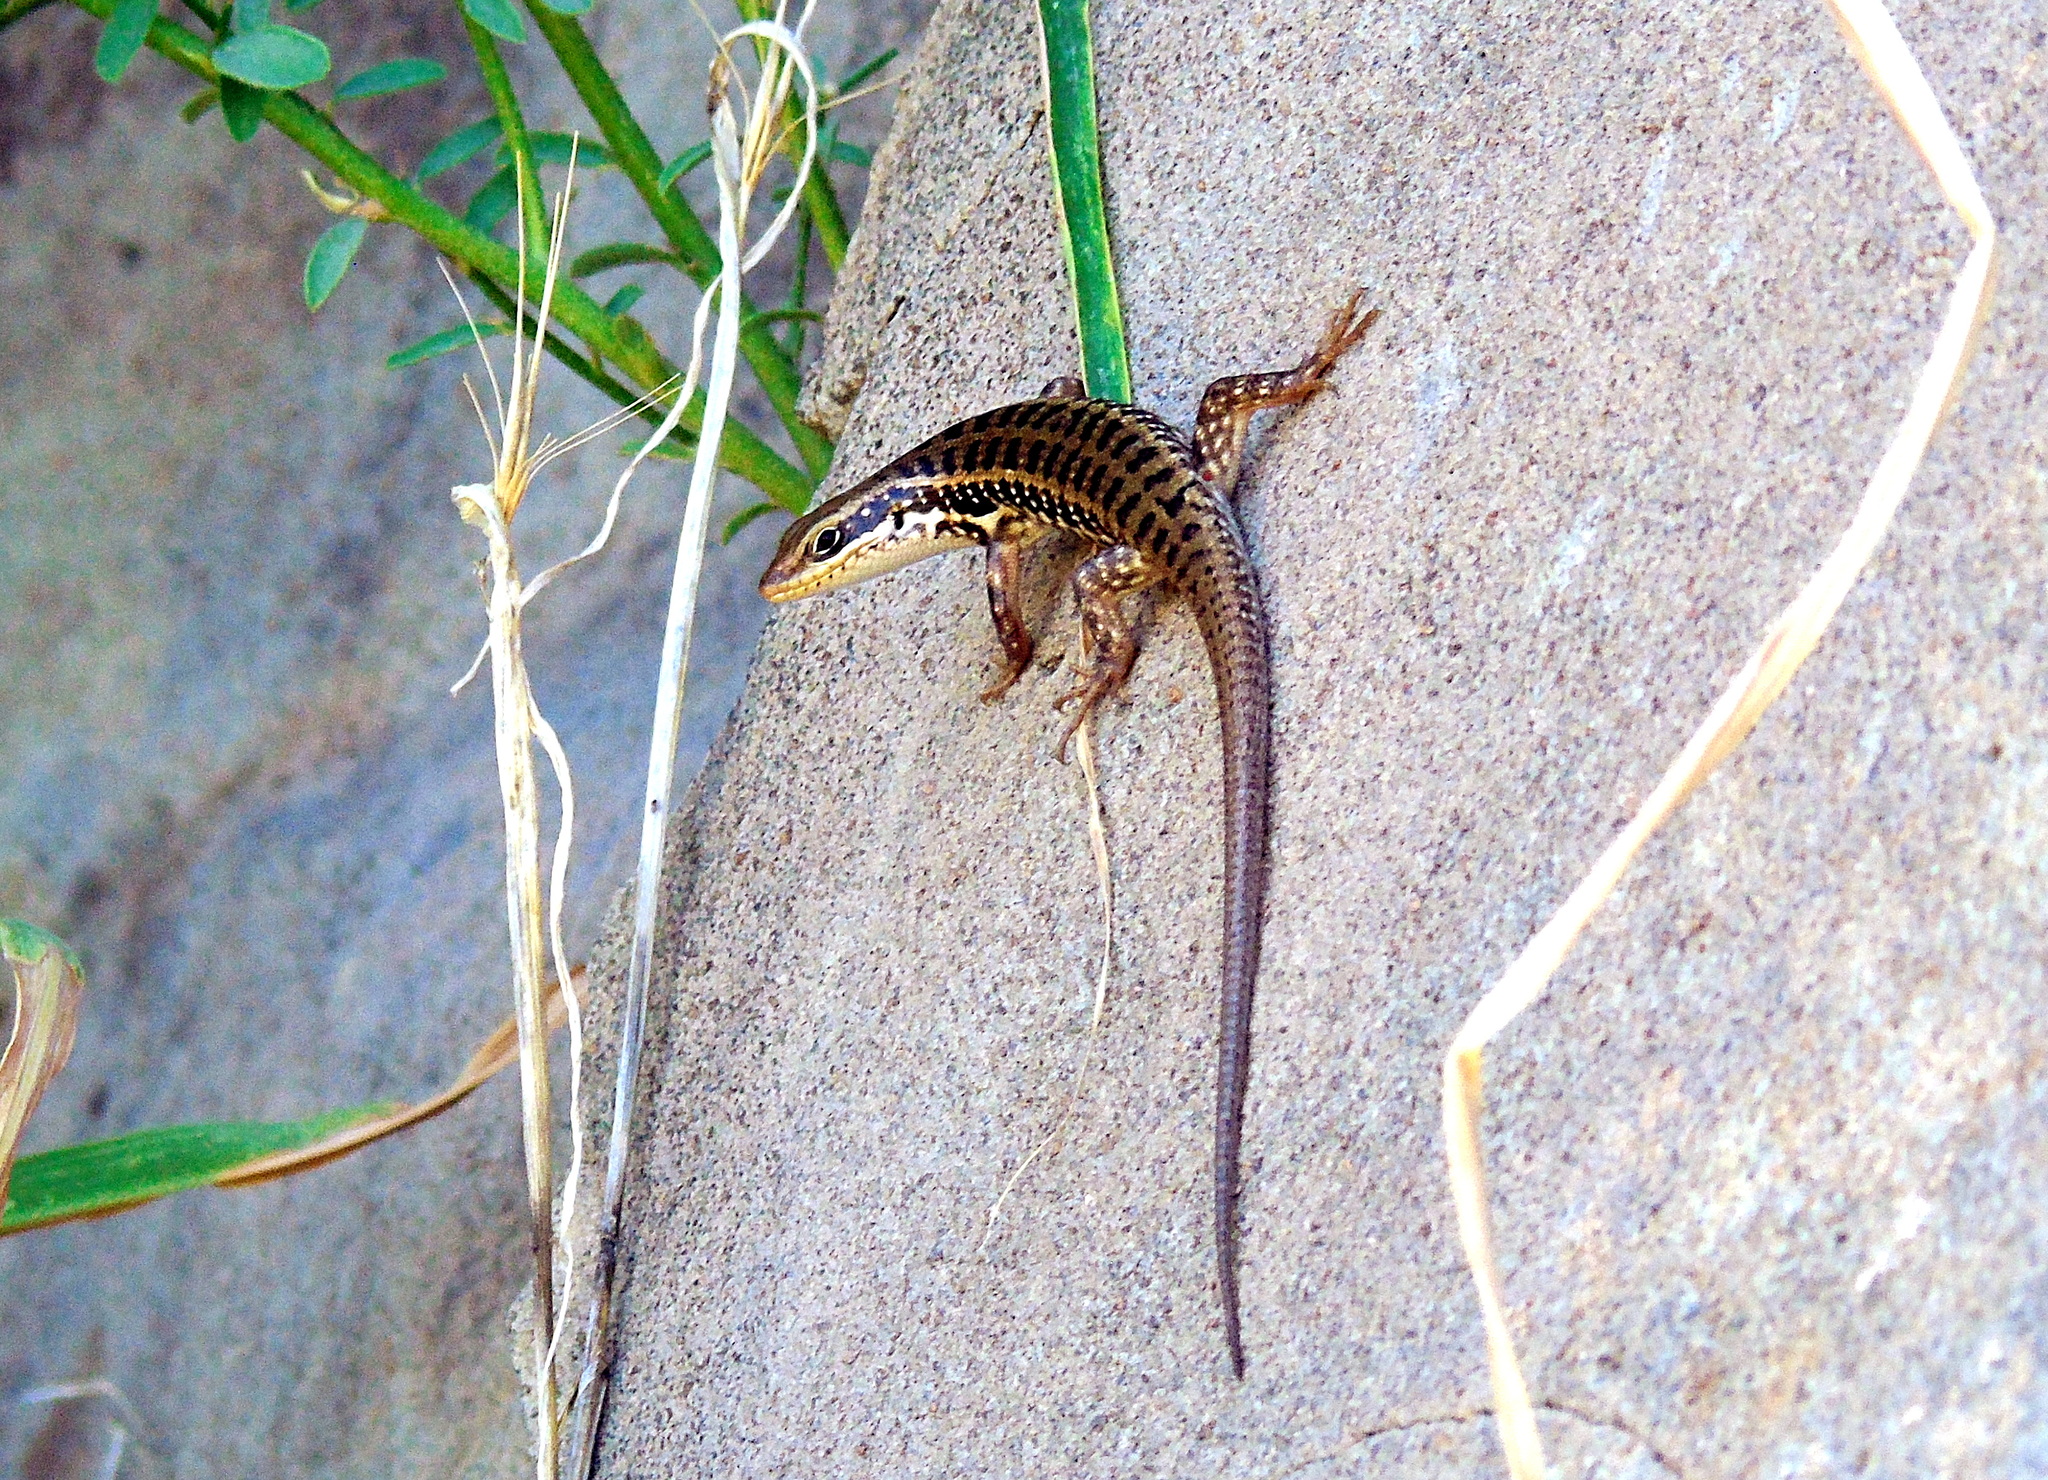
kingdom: Animalia
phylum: Chordata
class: Squamata
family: Scincidae
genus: Heremites
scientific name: Heremites auratus
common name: Golden grass mabuya
